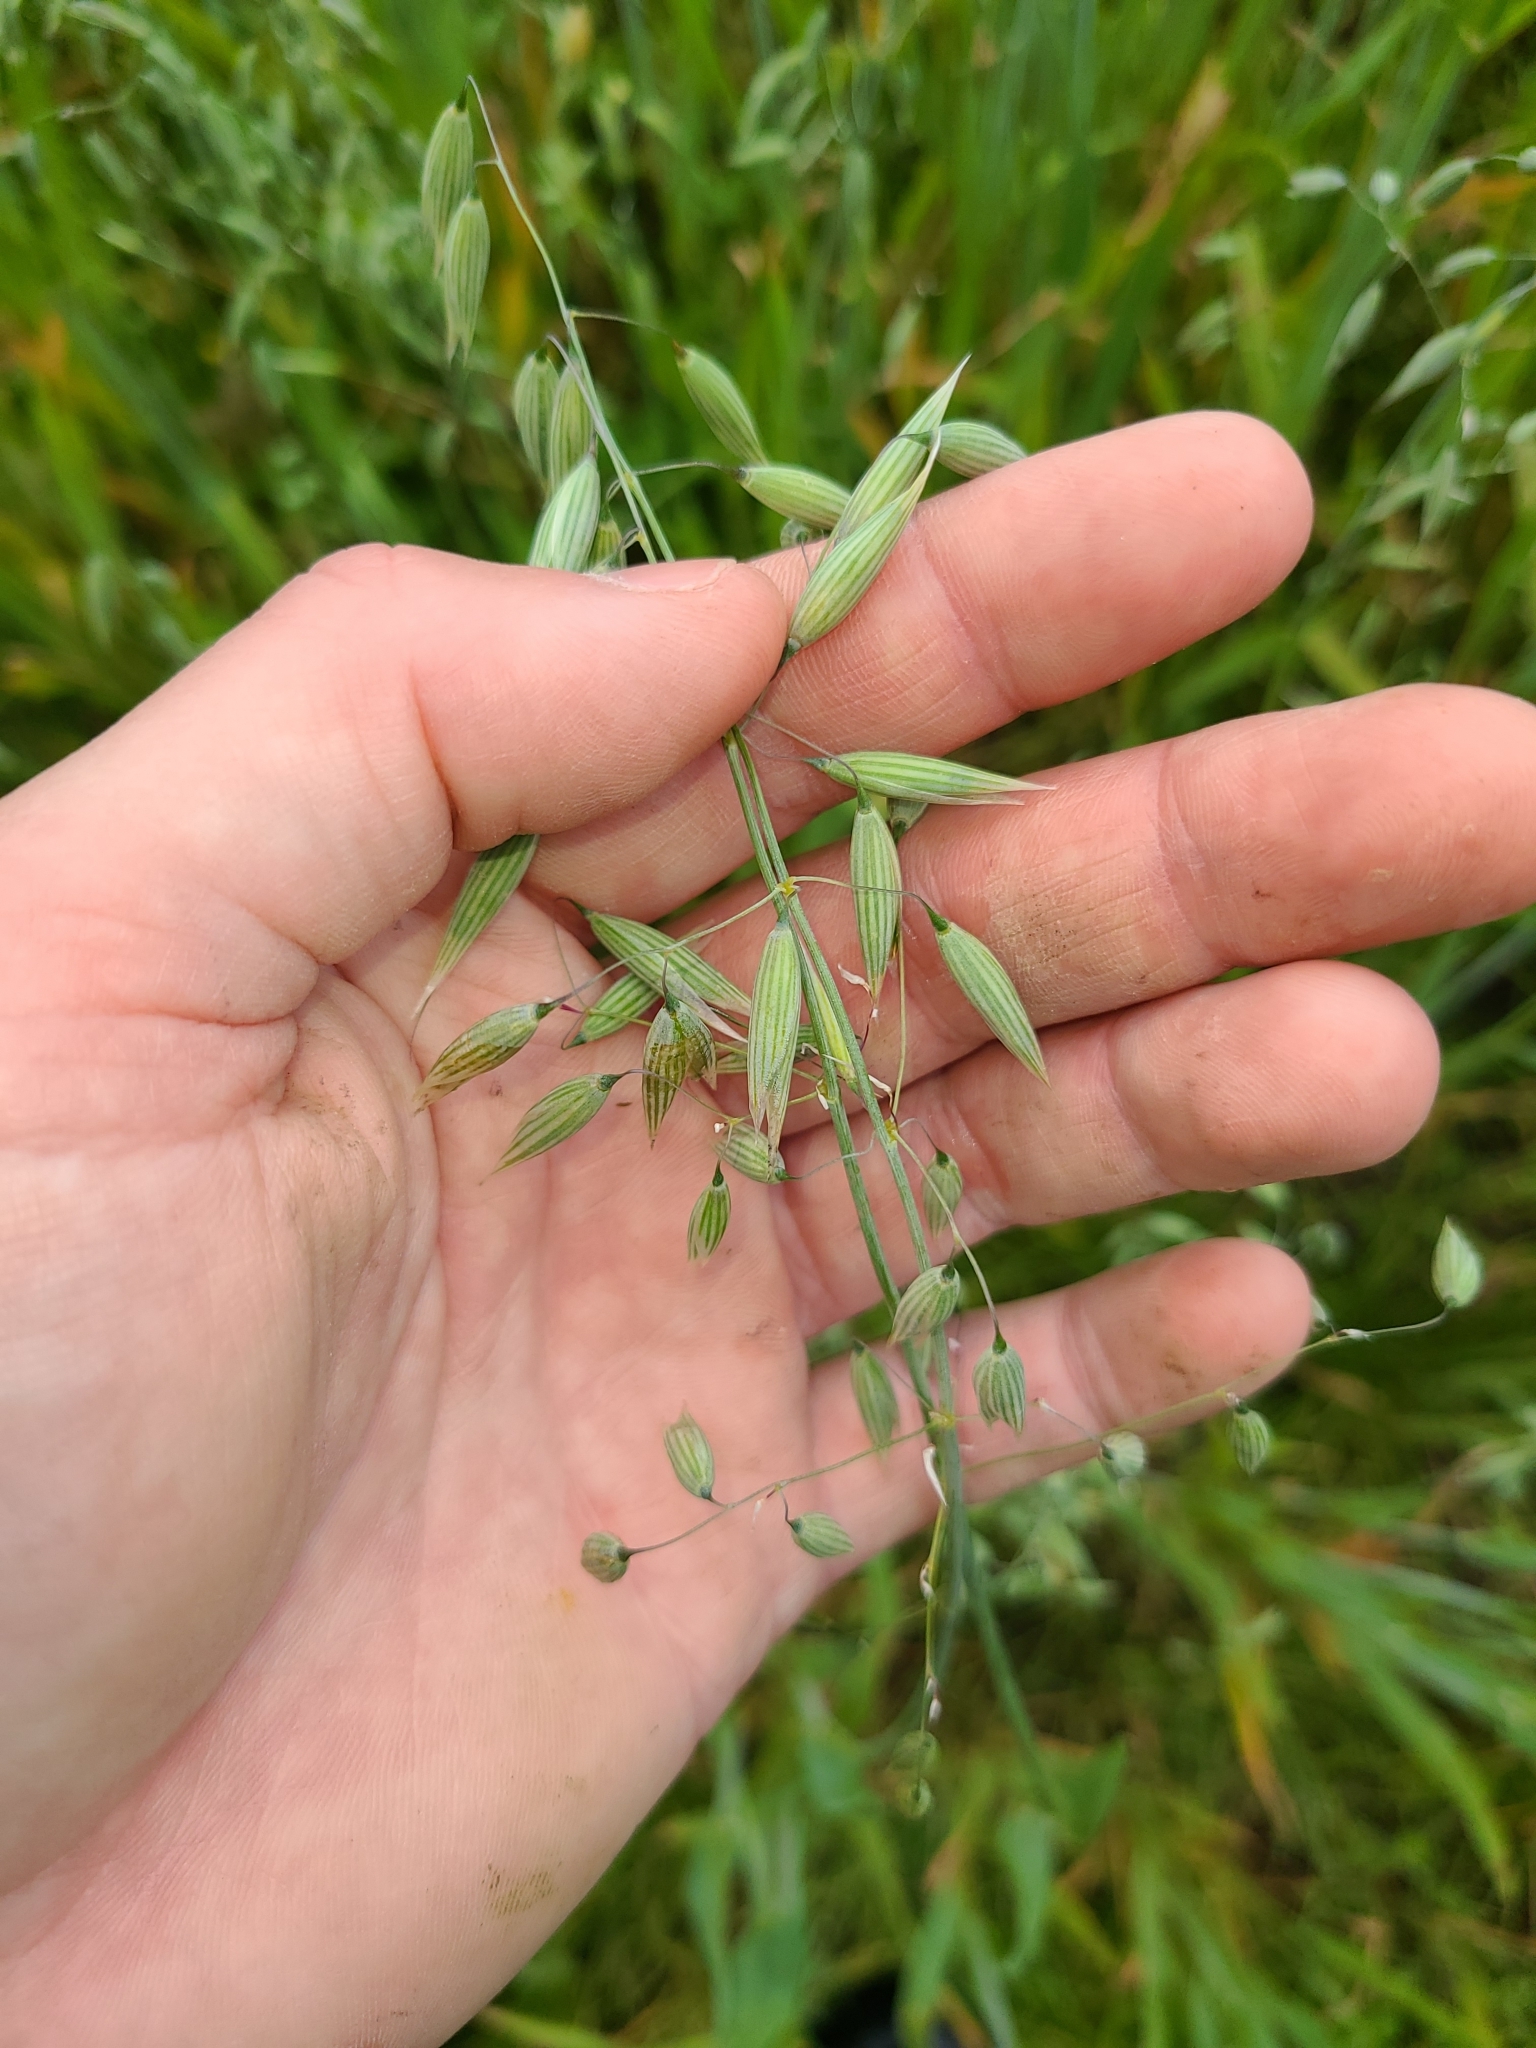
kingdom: Plantae
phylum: Tracheophyta
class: Liliopsida
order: Poales
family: Poaceae
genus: Avena
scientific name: Avena sativa
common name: Oat
